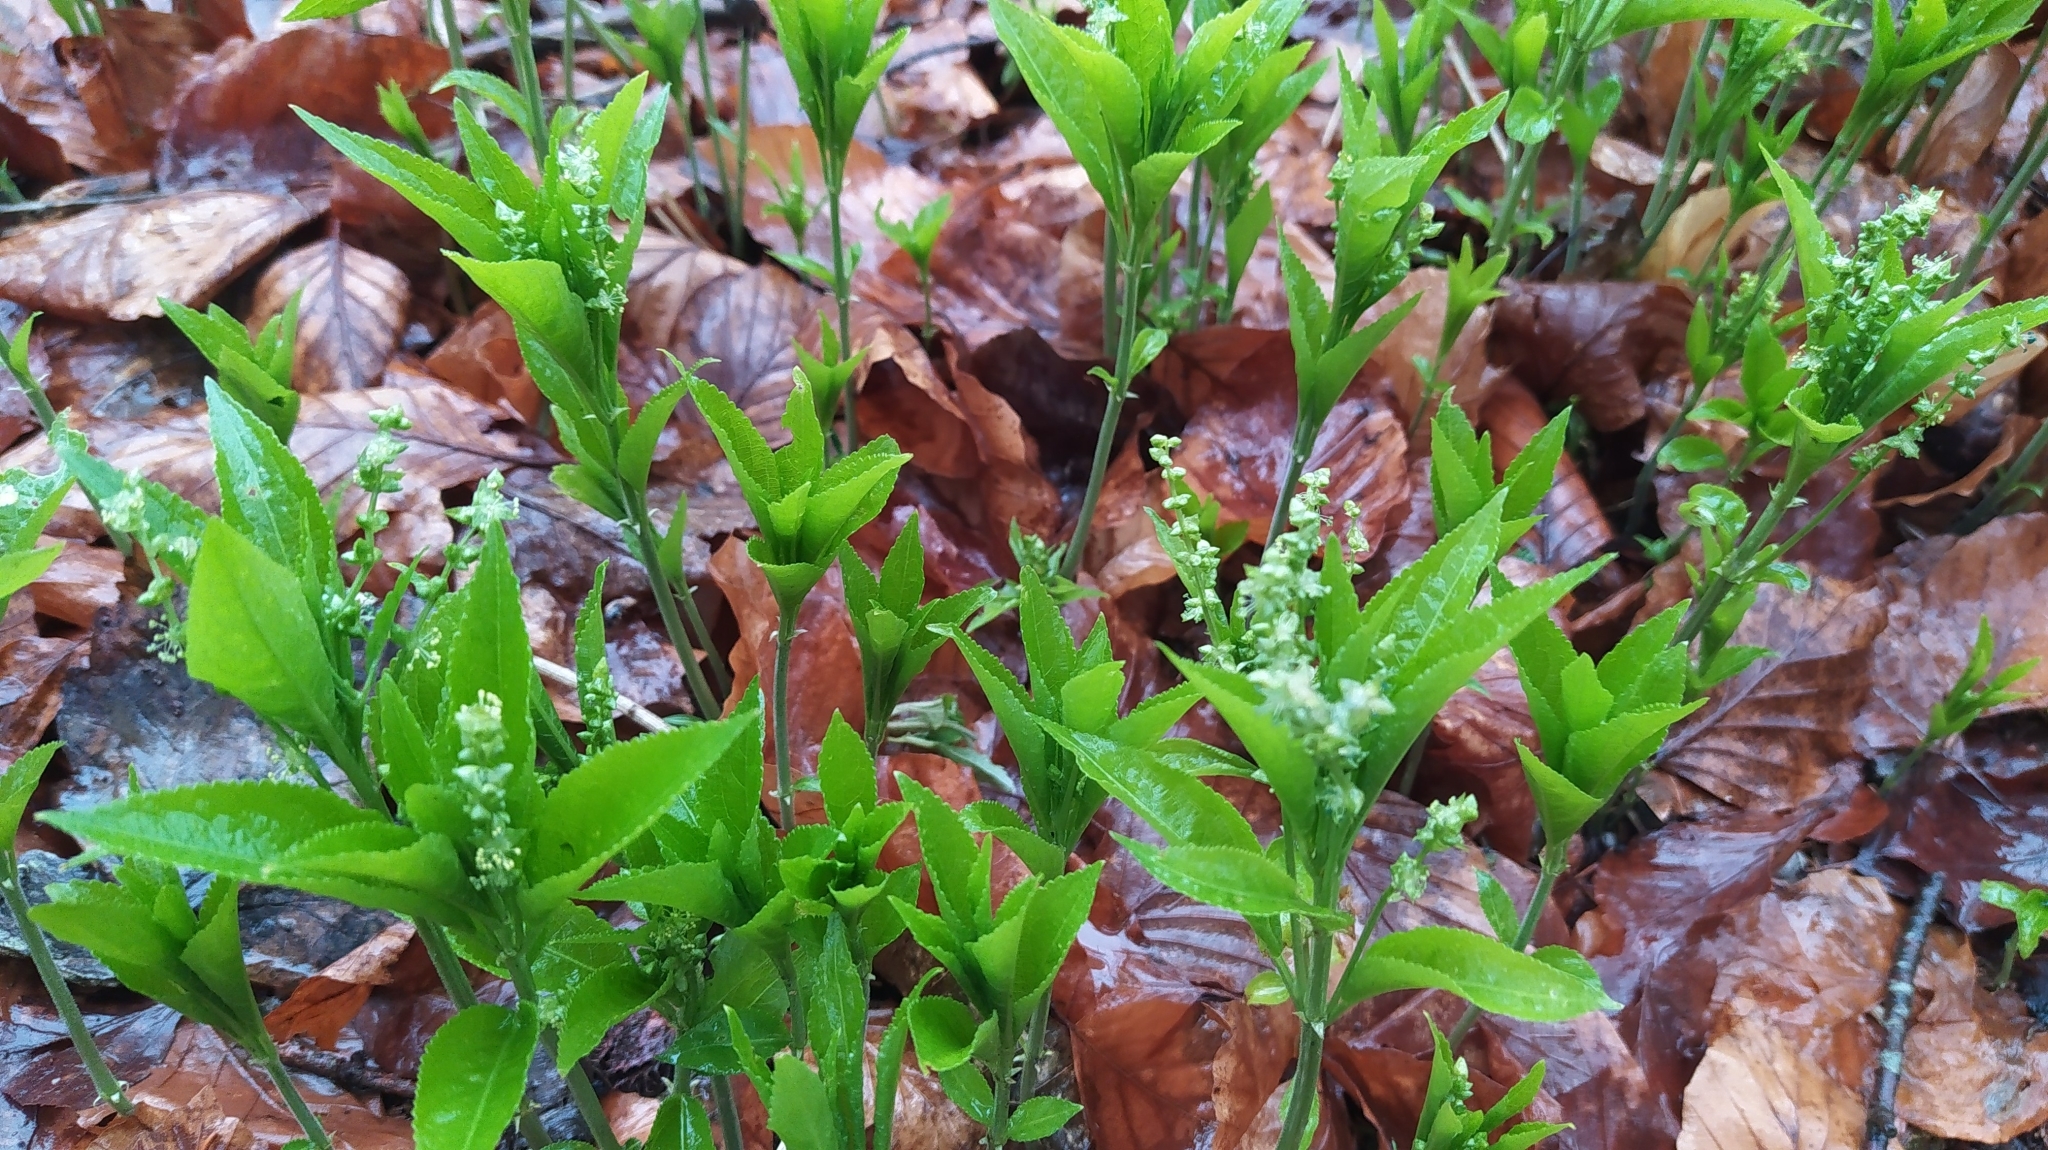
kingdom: Plantae
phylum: Tracheophyta
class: Magnoliopsida
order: Malpighiales
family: Euphorbiaceae
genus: Mercurialis
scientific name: Mercurialis perennis
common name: Dog mercury
